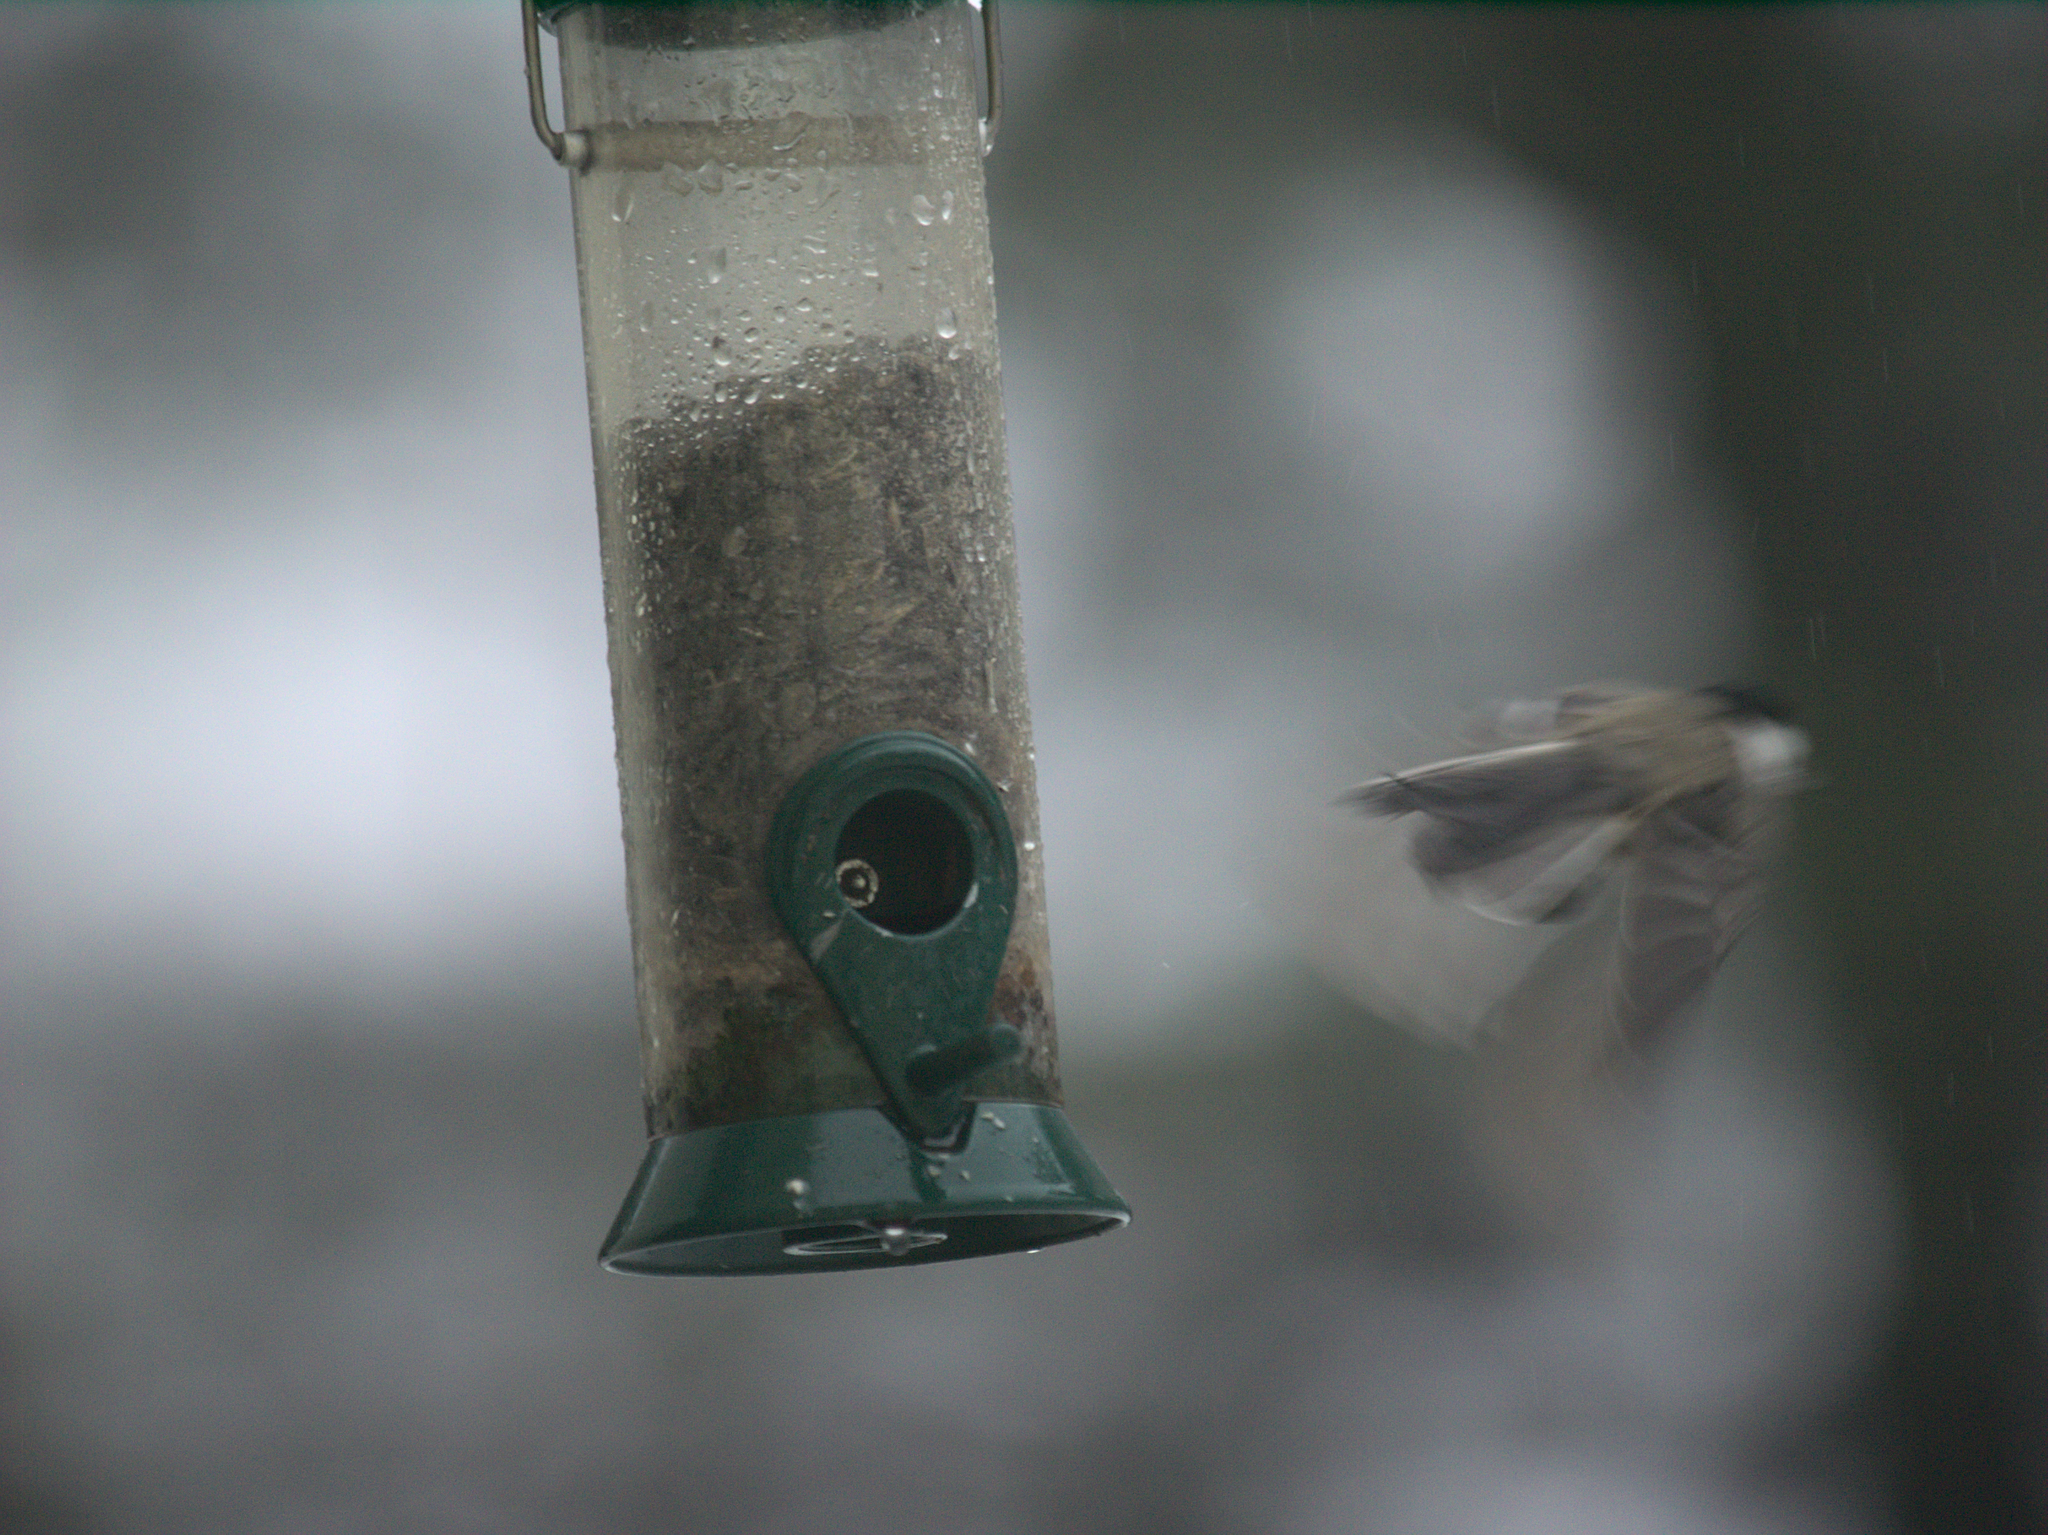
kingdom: Animalia
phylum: Chordata
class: Aves
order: Passeriformes
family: Paridae
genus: Poecile
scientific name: Poecile atricapillus
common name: Black-capped chickadee
